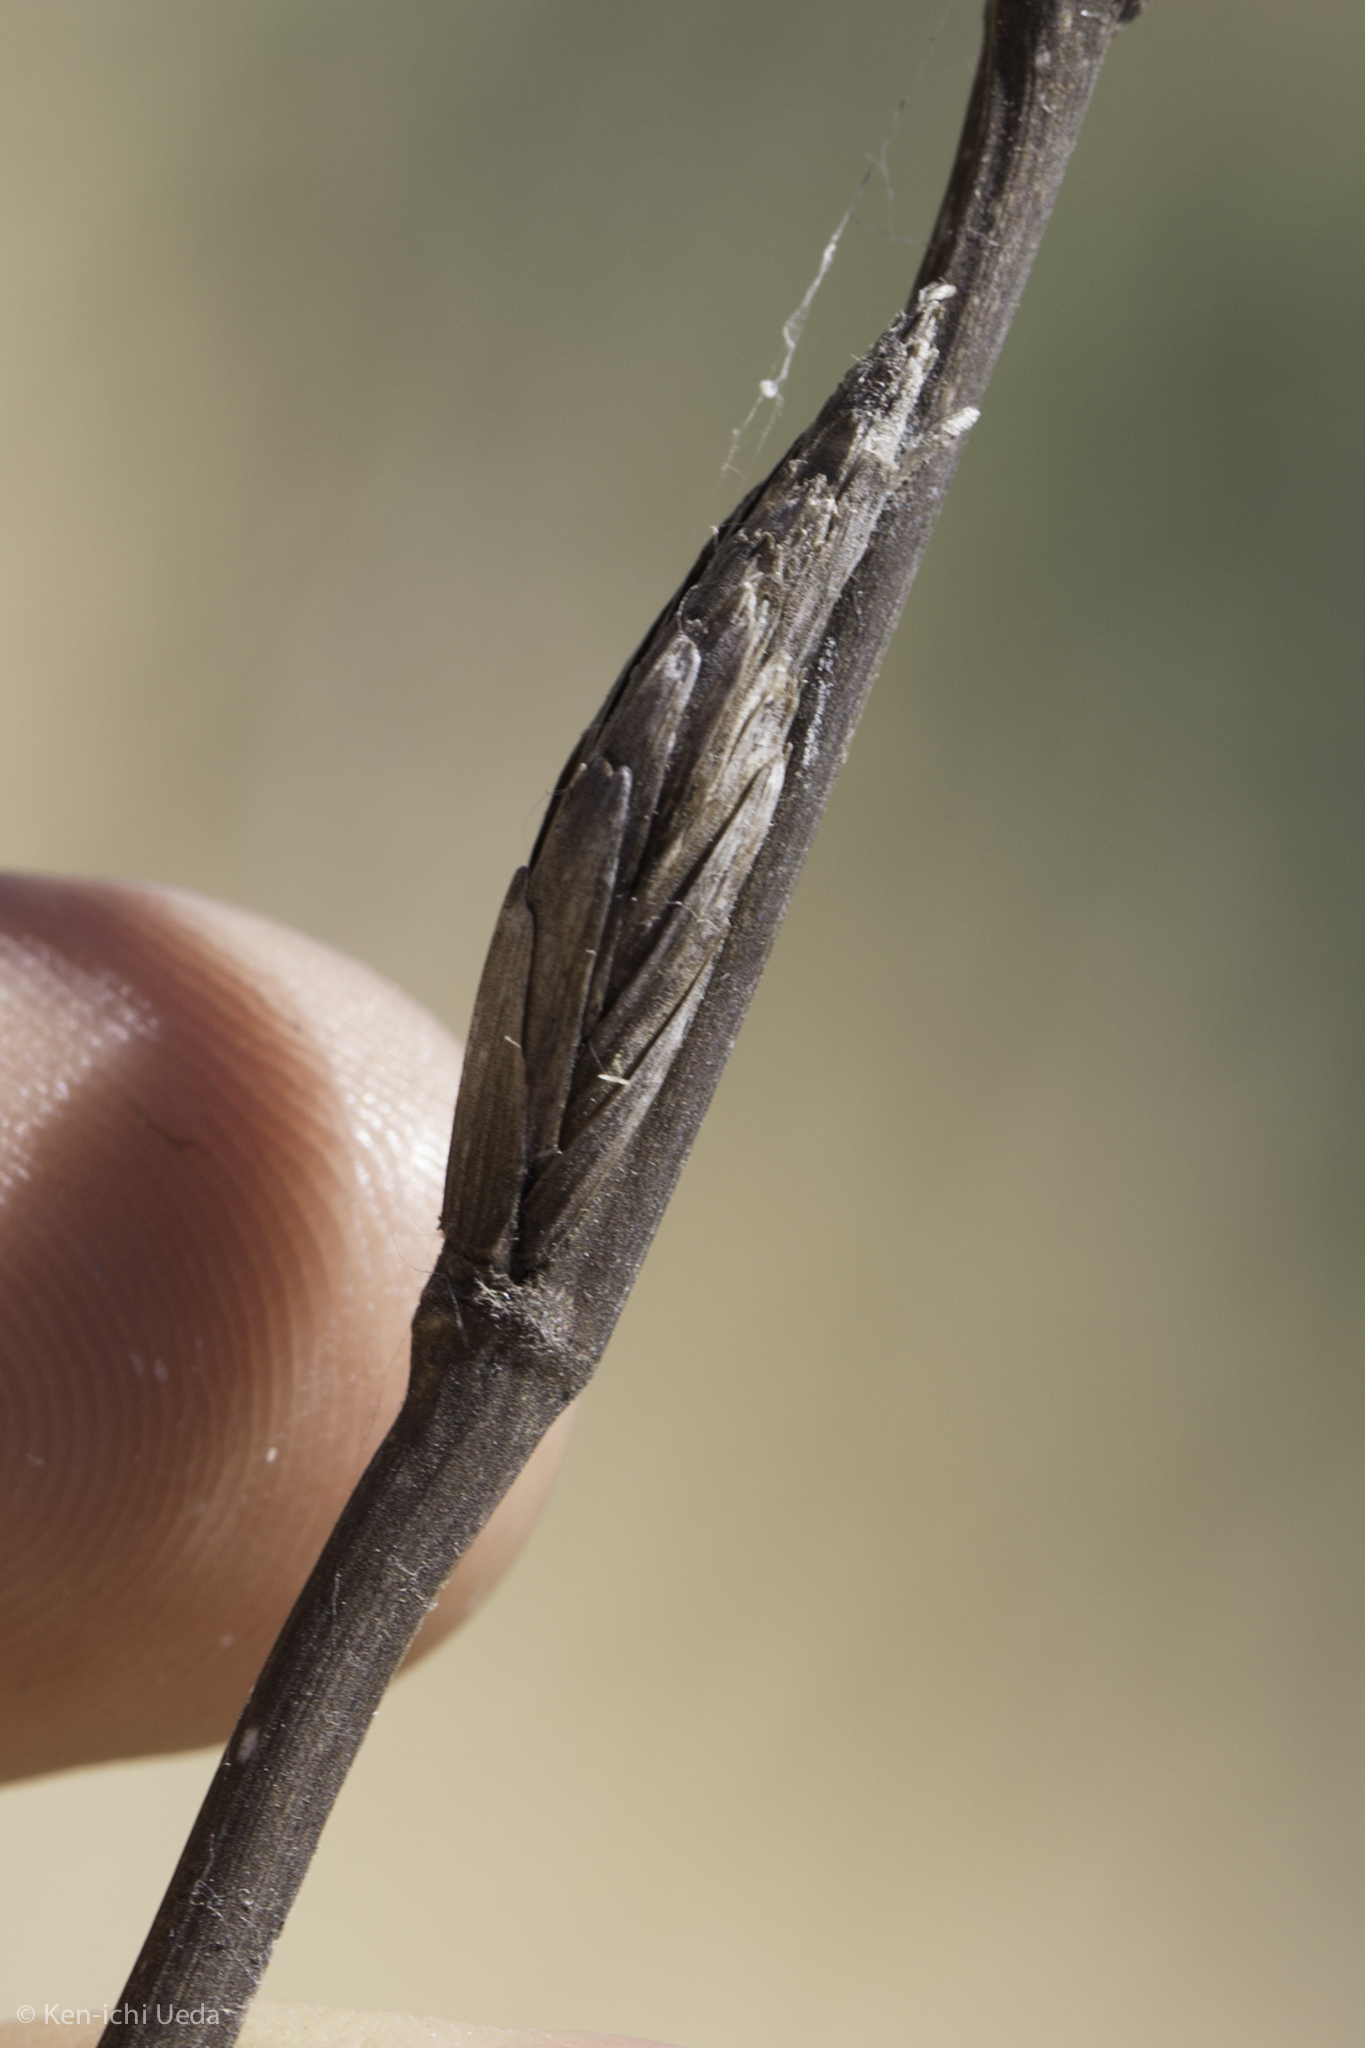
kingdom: Plantae
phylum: Tracheophyta
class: Liliopsida
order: Poales
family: Poaceae
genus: Thinopyrum
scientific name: Thinopyrum obtusiflorum
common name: Eurasian quackgrass
